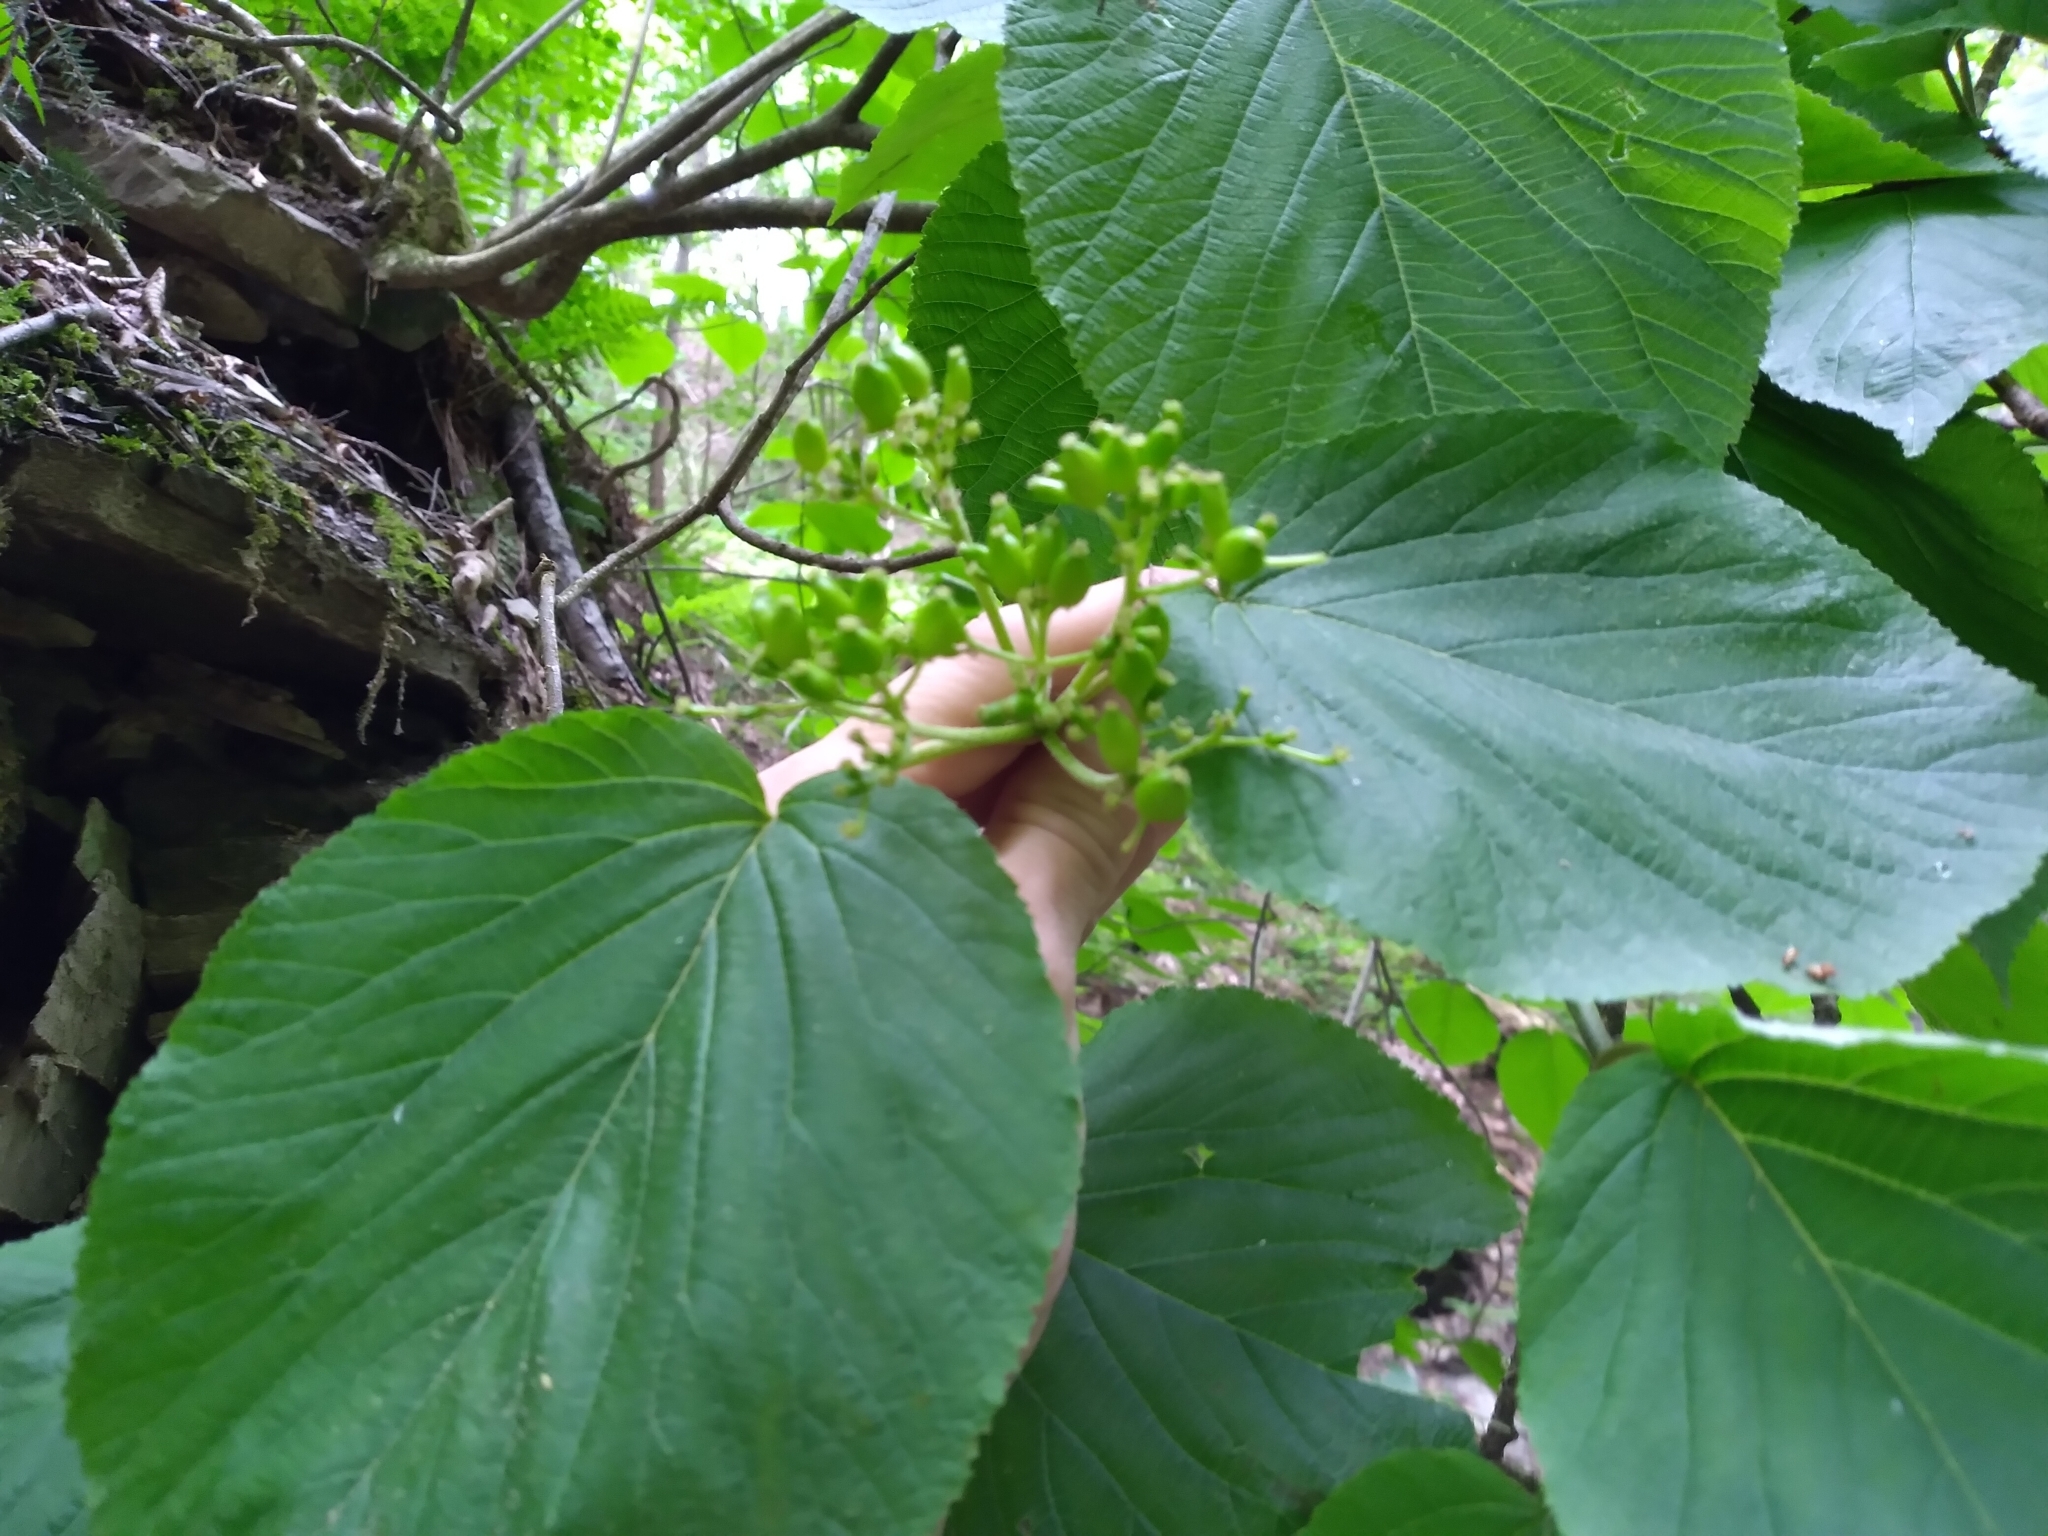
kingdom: Plantae
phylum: Tracheophyta
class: Magnoliopsida
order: Dipsacales
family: Viburnaceae
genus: Viburnum
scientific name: Viburnum lantanoides
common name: Hobblebush
